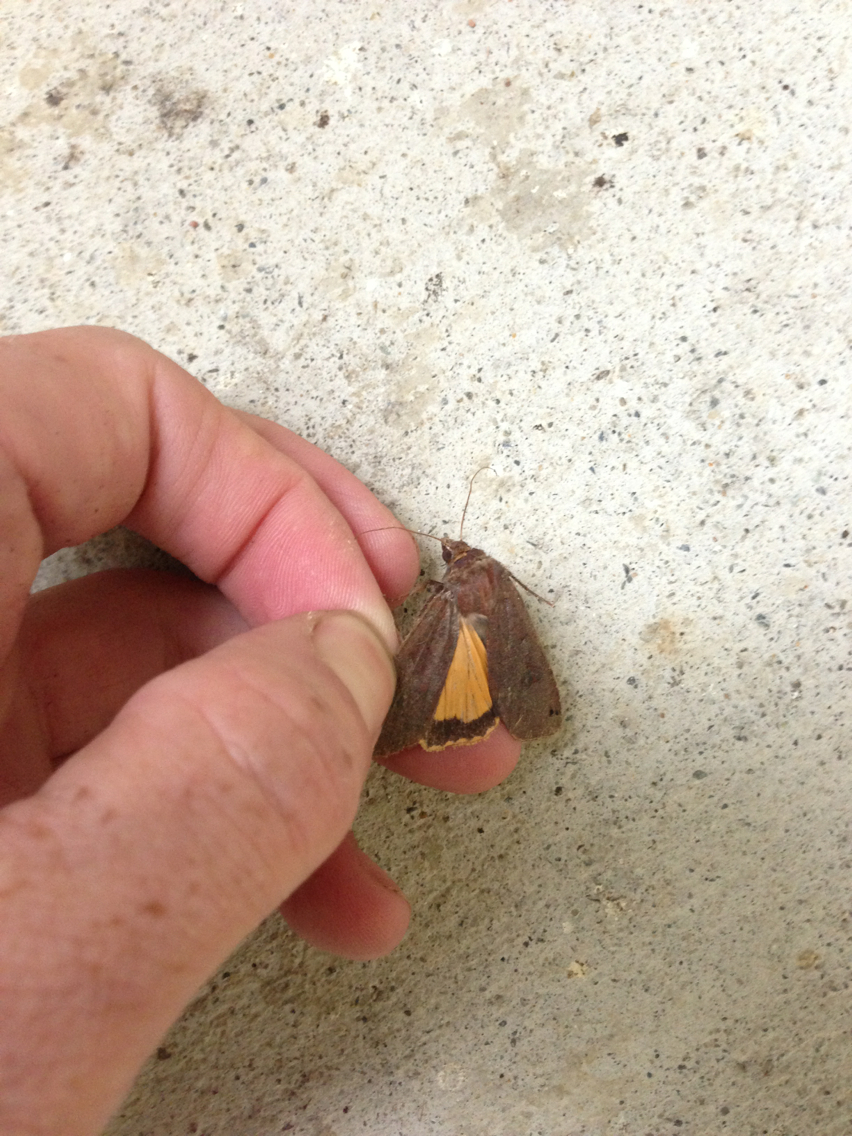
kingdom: Animalia
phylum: Arthropoda
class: Insecta
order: Lepidoptera
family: Noctuidae
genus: Noctua
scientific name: Noctua pronuba
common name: Large yellow underwing
